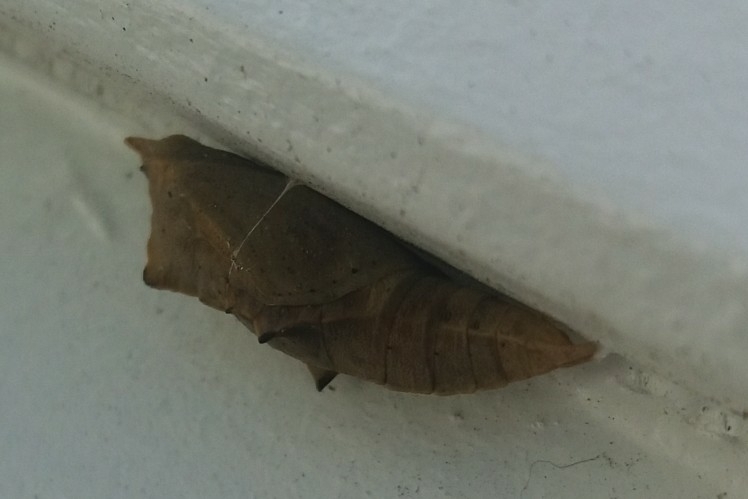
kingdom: Animalia
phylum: Arthropoda
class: Insecta
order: Lepidoptera
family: Pieridae
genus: Pieris
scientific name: Pieris rapae
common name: Small white
